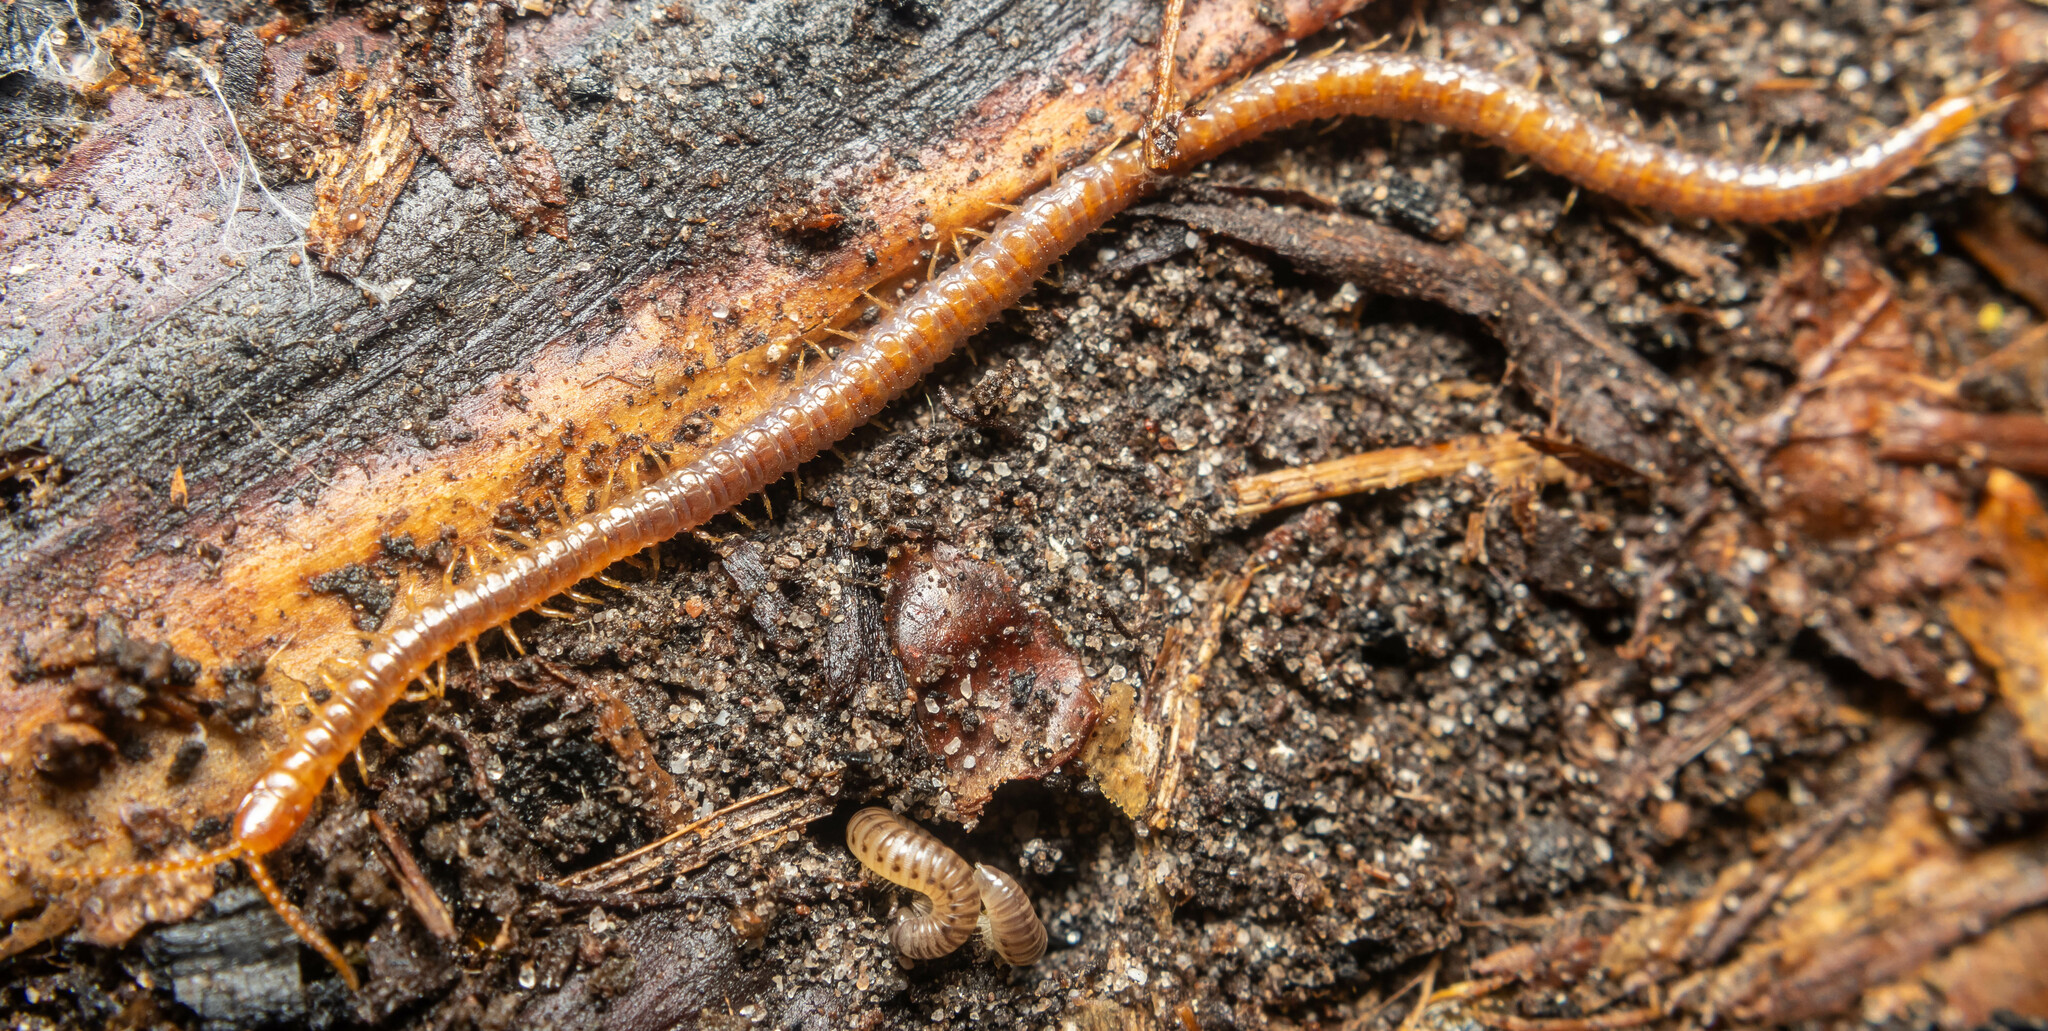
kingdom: Animalia
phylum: Arthropoda
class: Chilopoda
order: Geophilomorpha
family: Geophilidae
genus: Geophilus
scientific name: Geophilus easoni
